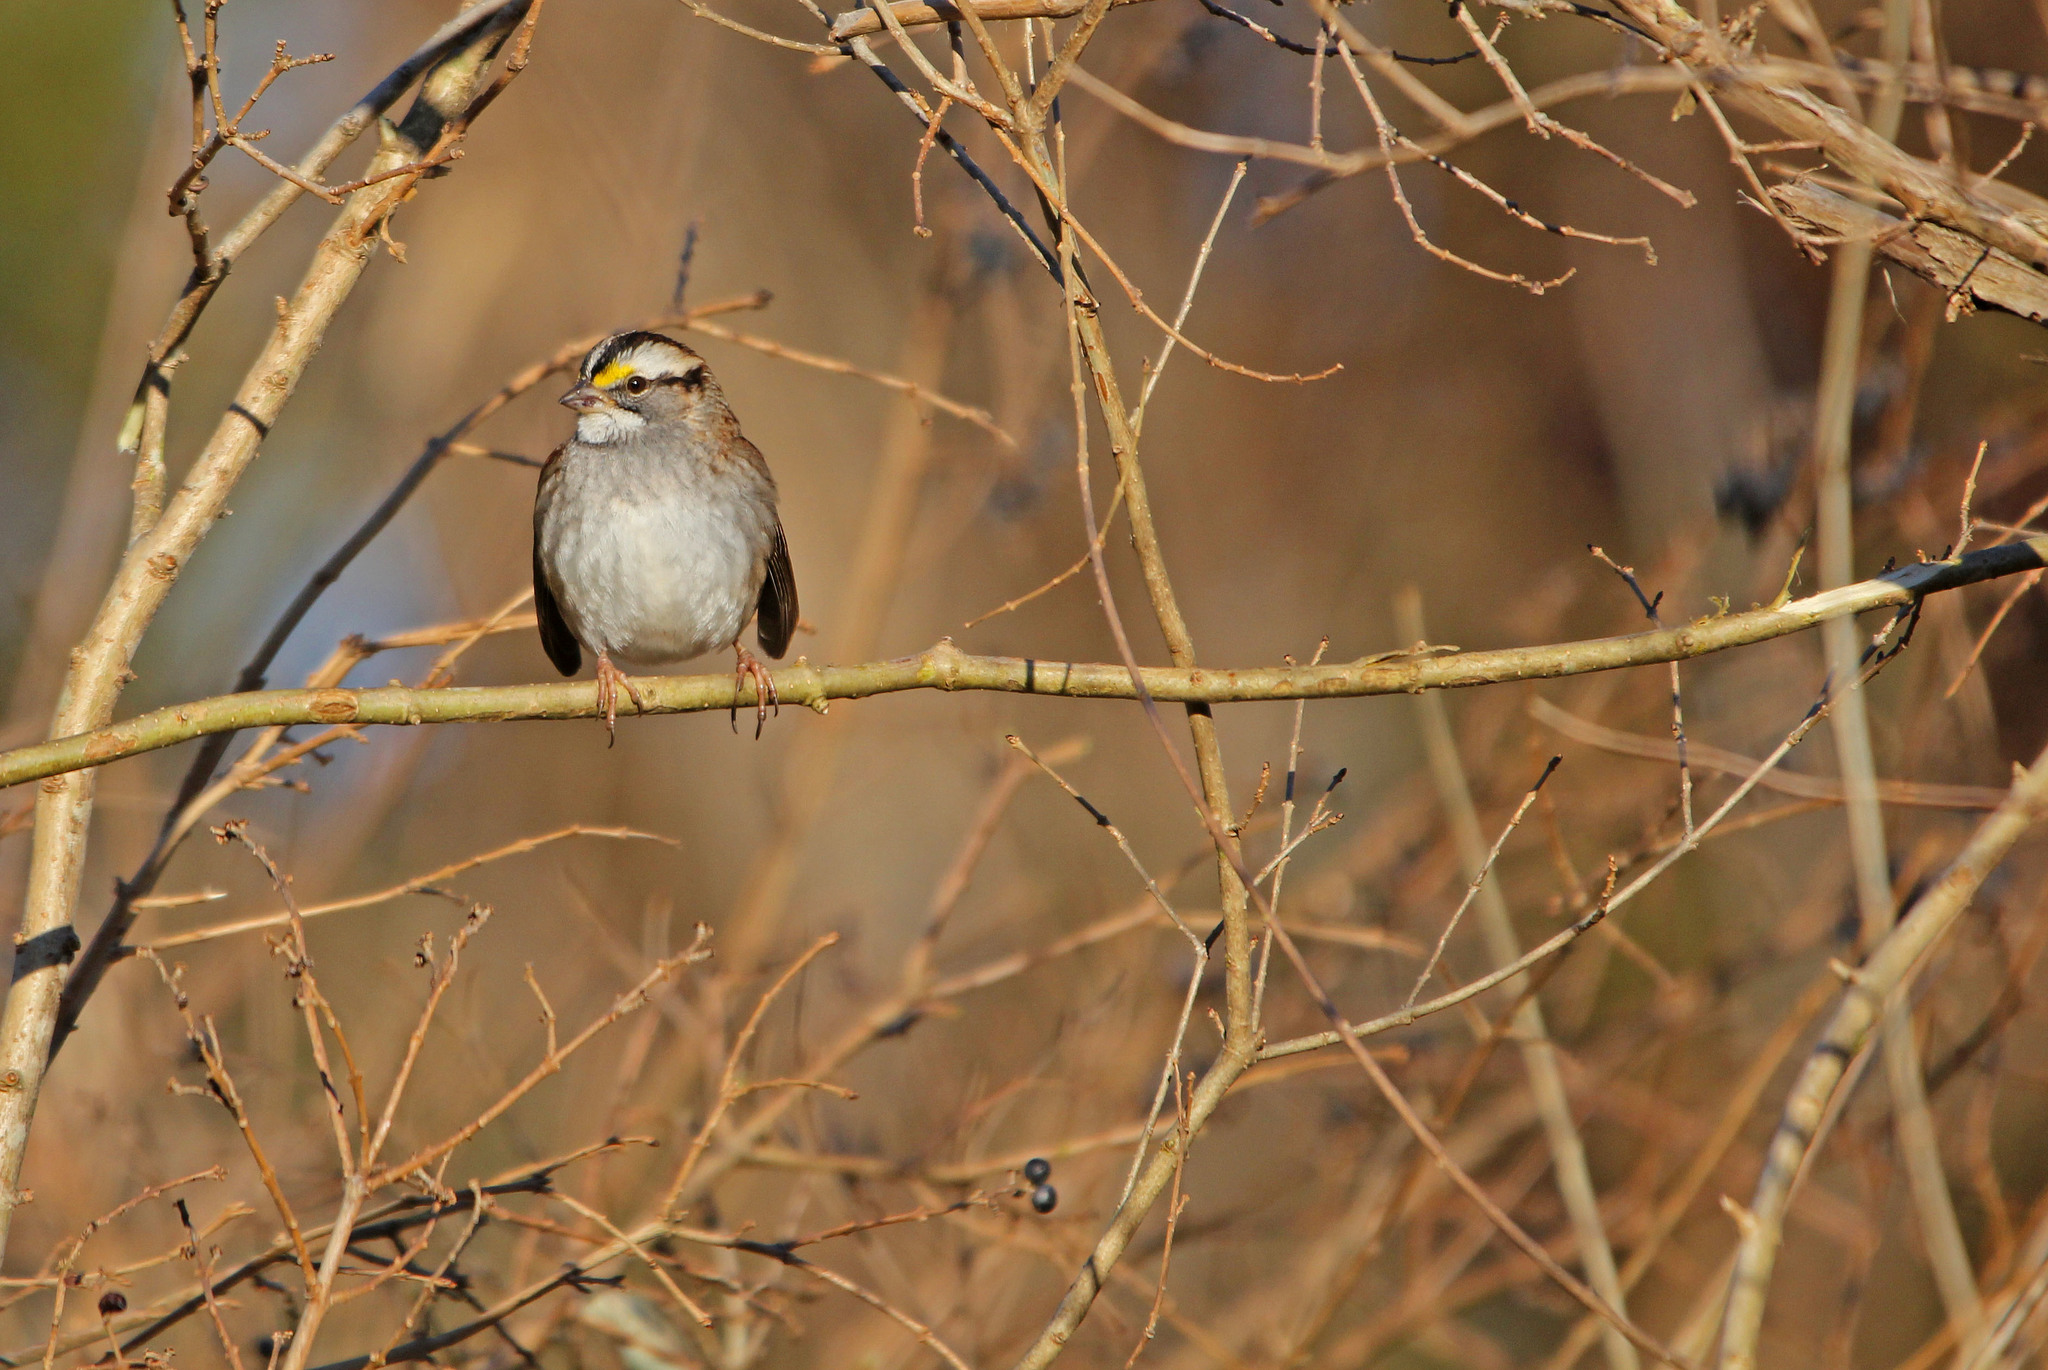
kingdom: Animalia
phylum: Chordata
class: Aves
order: Passeriformes
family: Passerellidae
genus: Zonotrichia
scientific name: Zonotrichia albicollis
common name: White-throated sparrow
